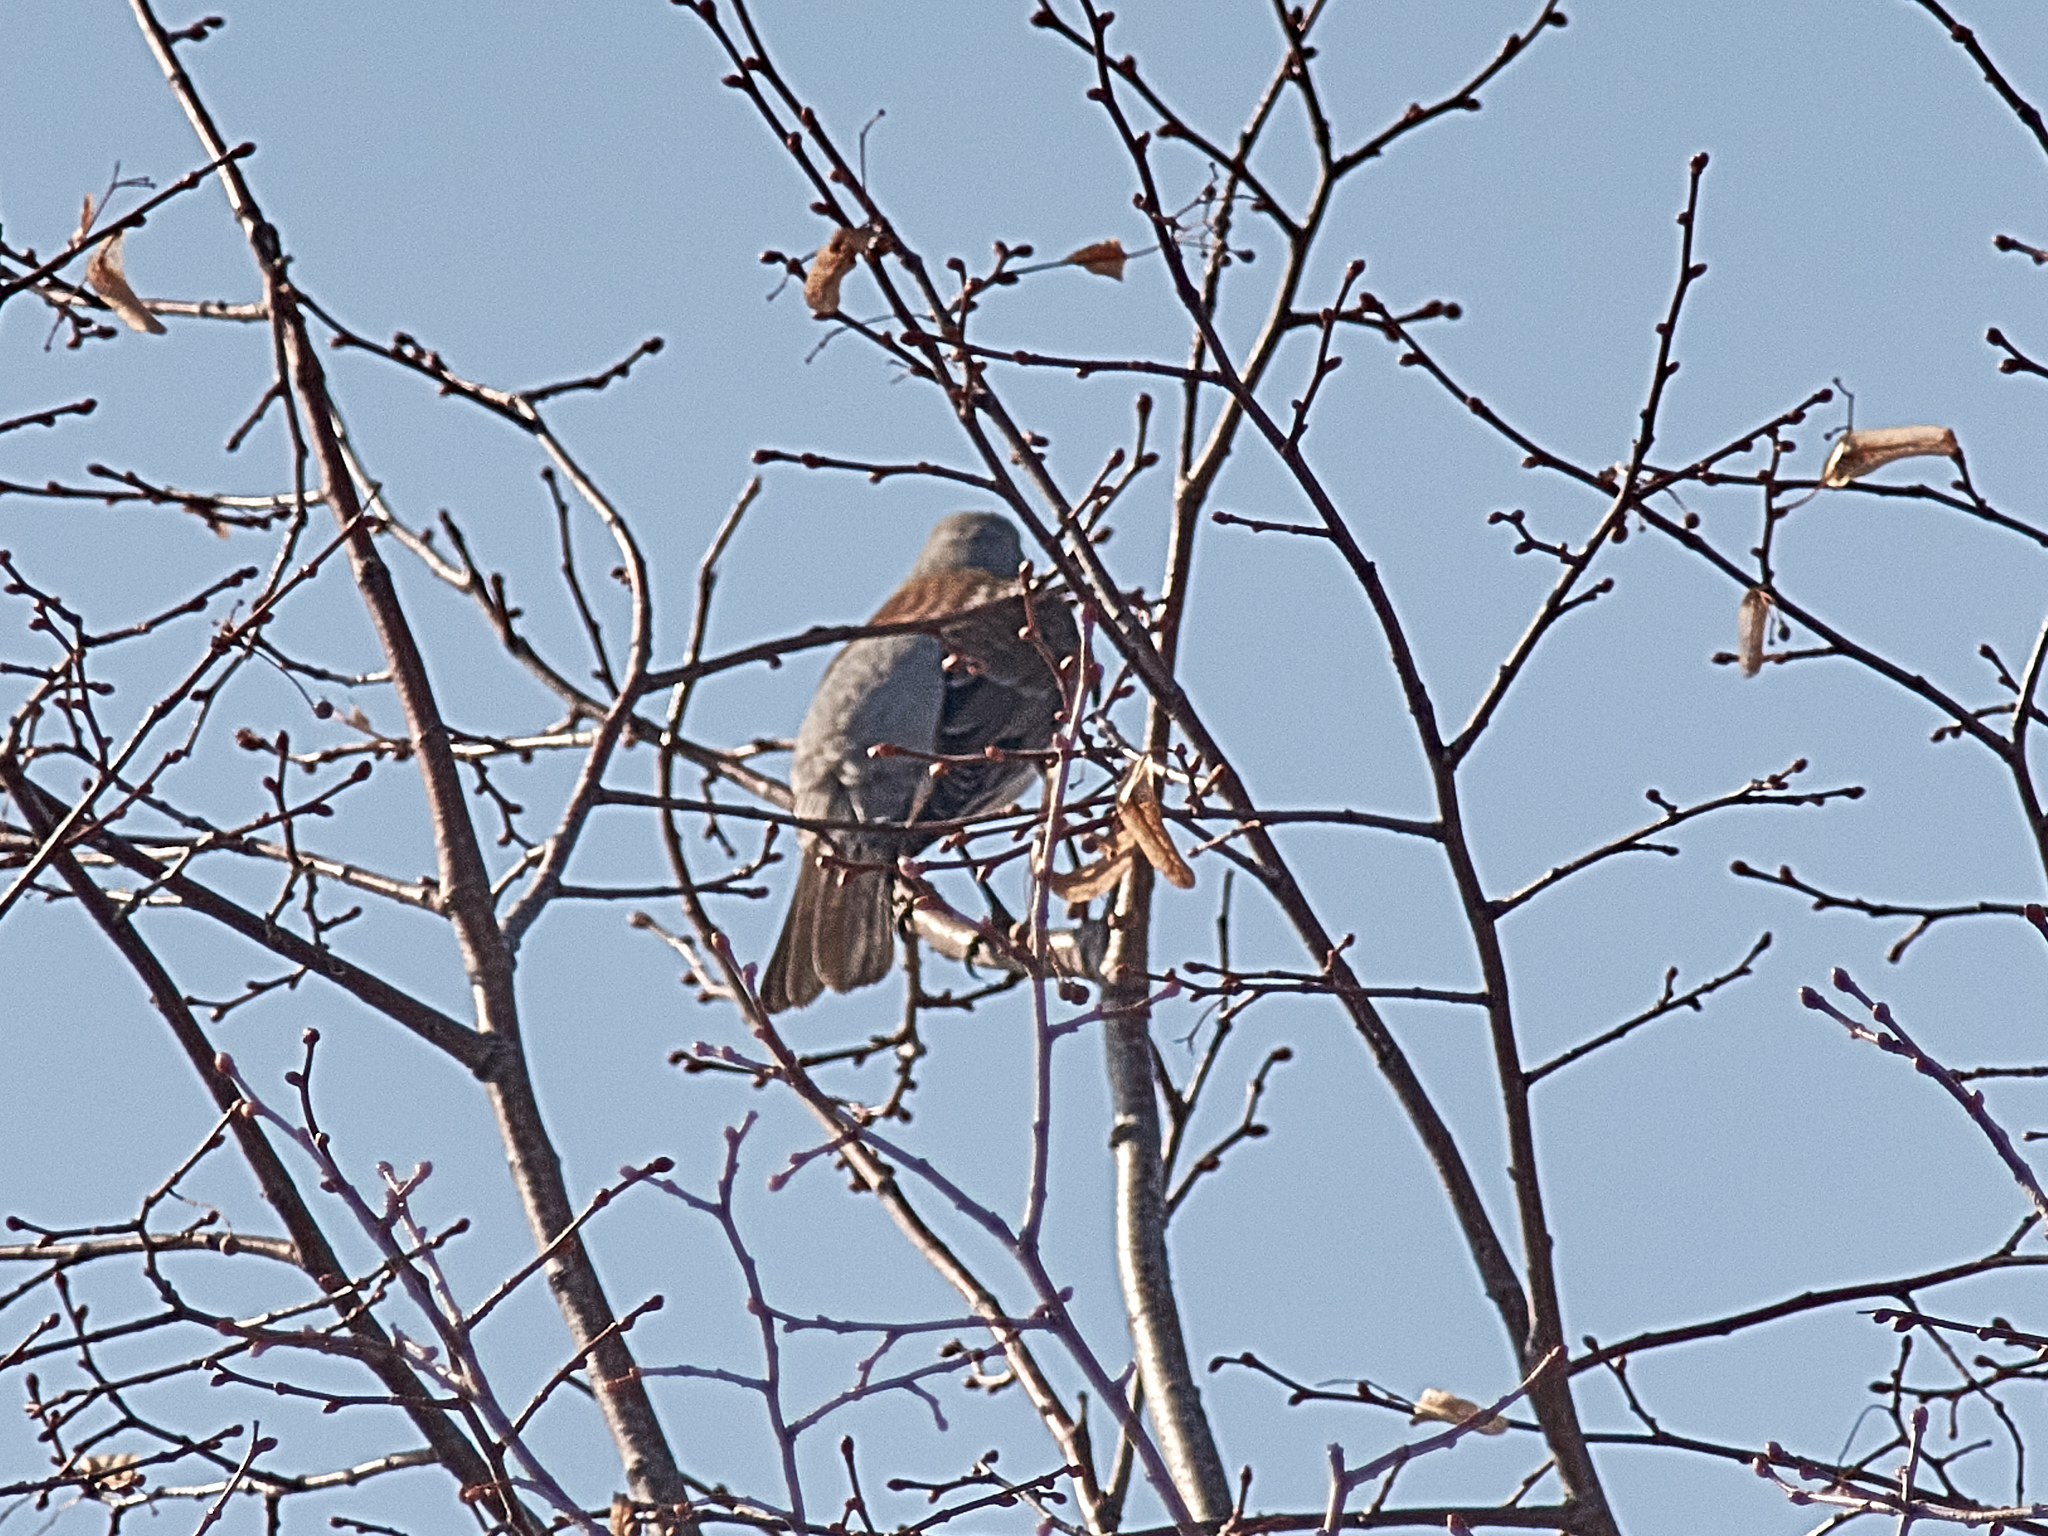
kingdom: Animalia
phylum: Chordata
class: Aves
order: Passeriformes
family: Turdidae
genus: Turdus
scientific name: Turdus pilaris
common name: Fieldfare
